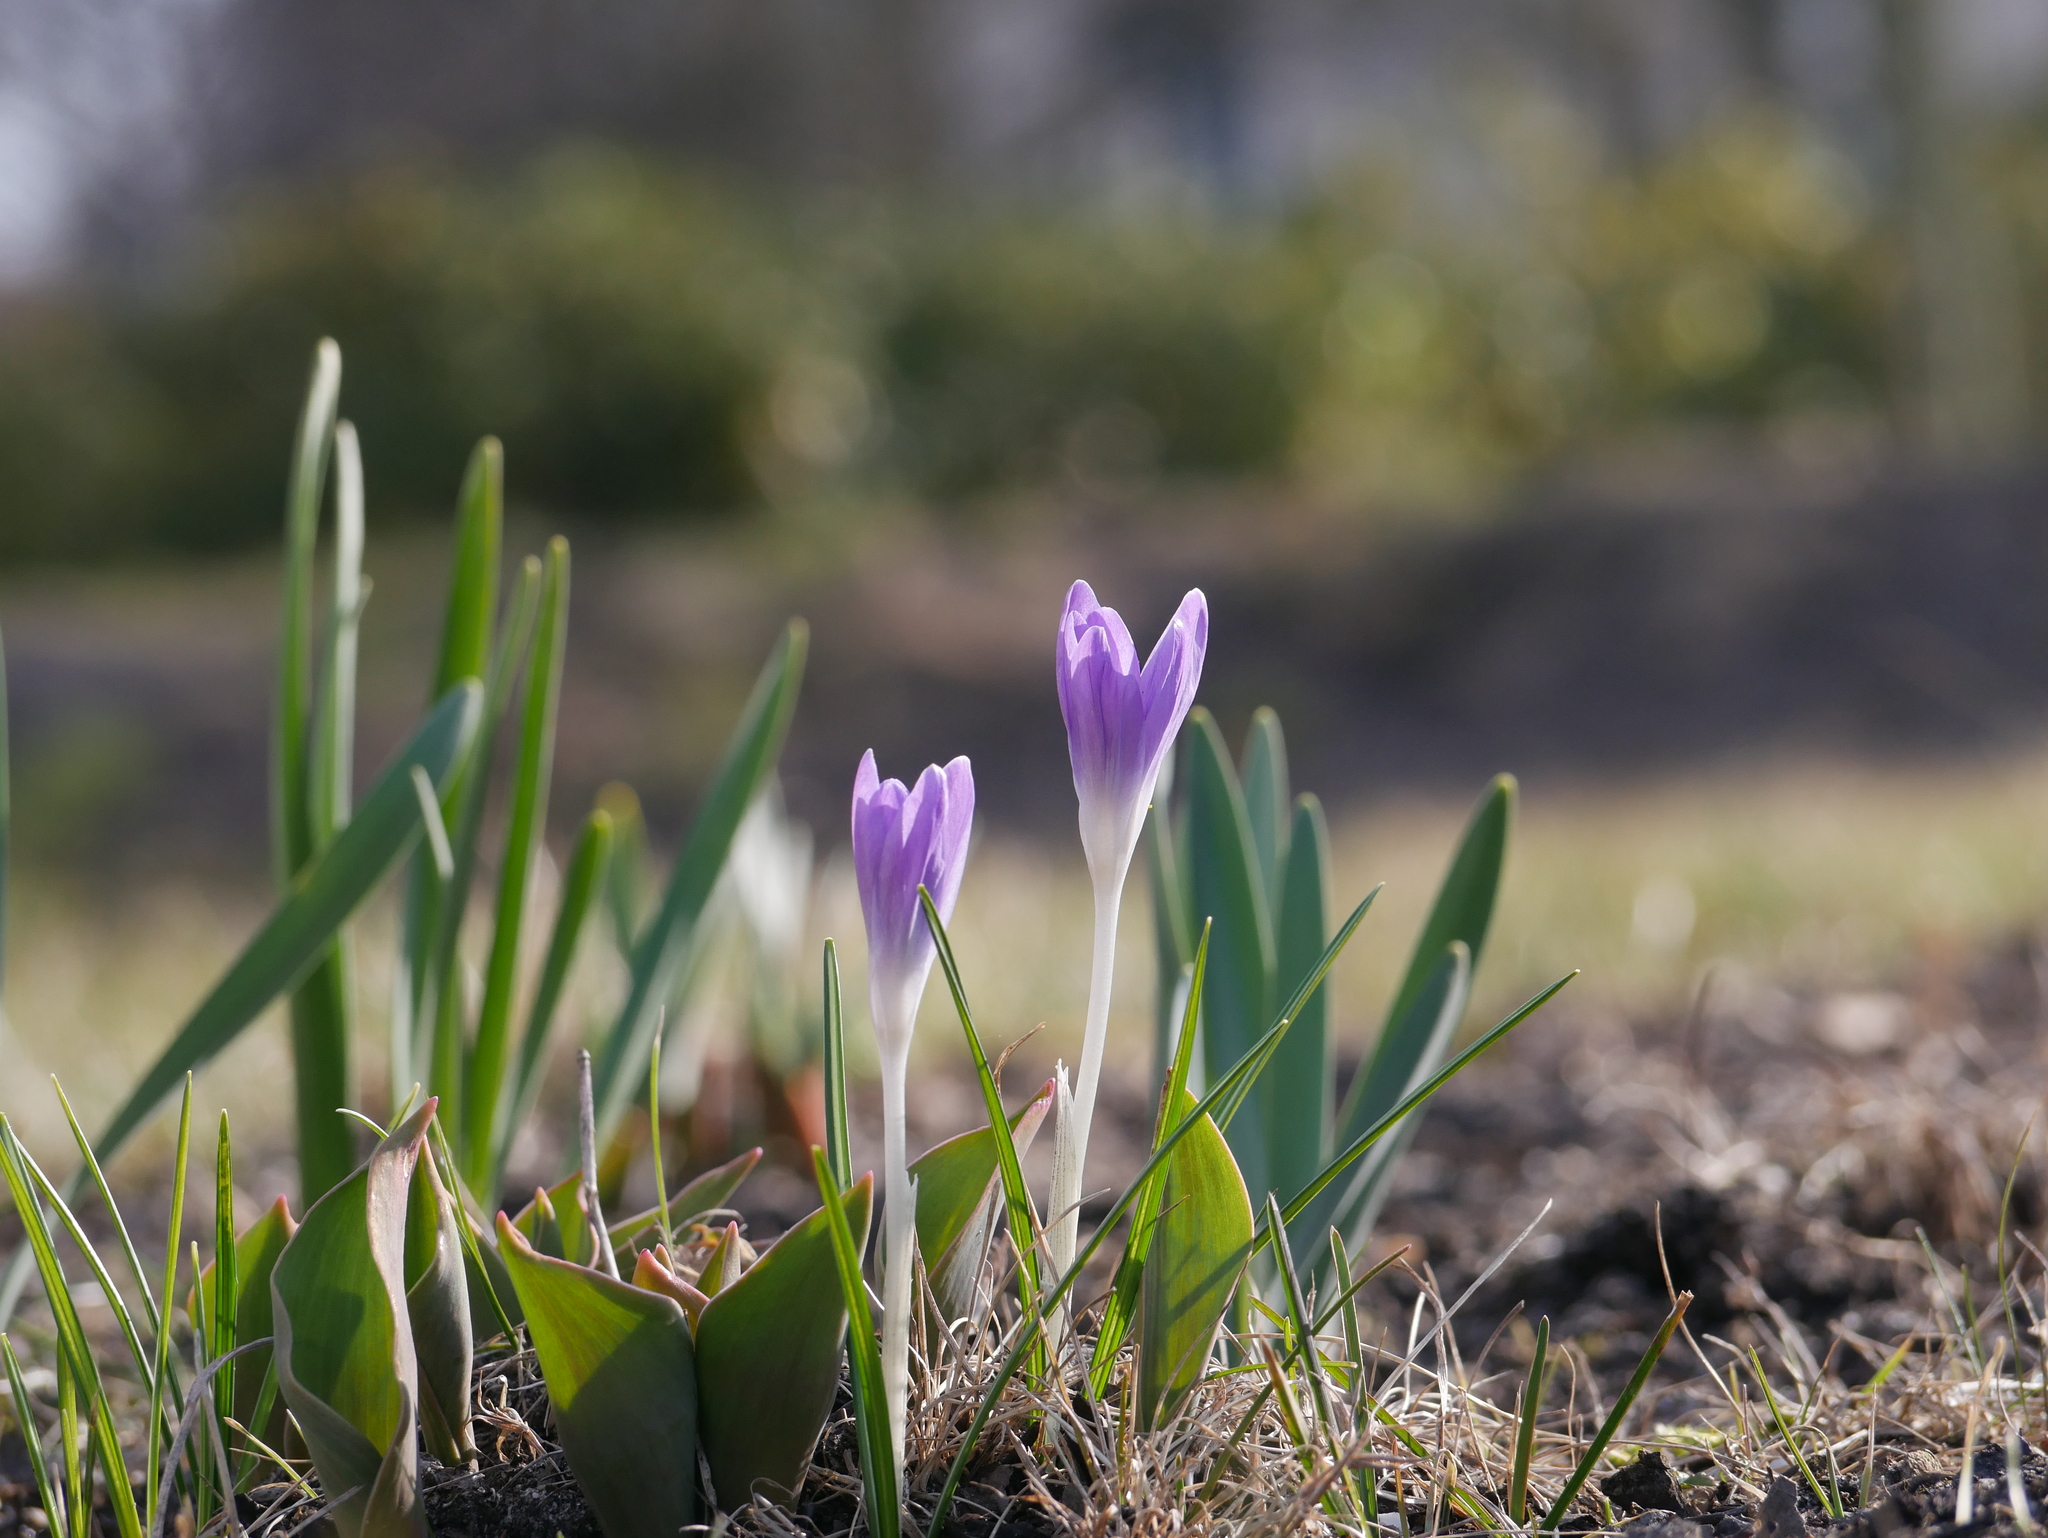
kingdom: Plantae
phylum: Tracheophyta
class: Liliopsida
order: Asparagales
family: Iridaceae
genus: Crocus
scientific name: Crocus tommasinianus
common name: Early crocus
